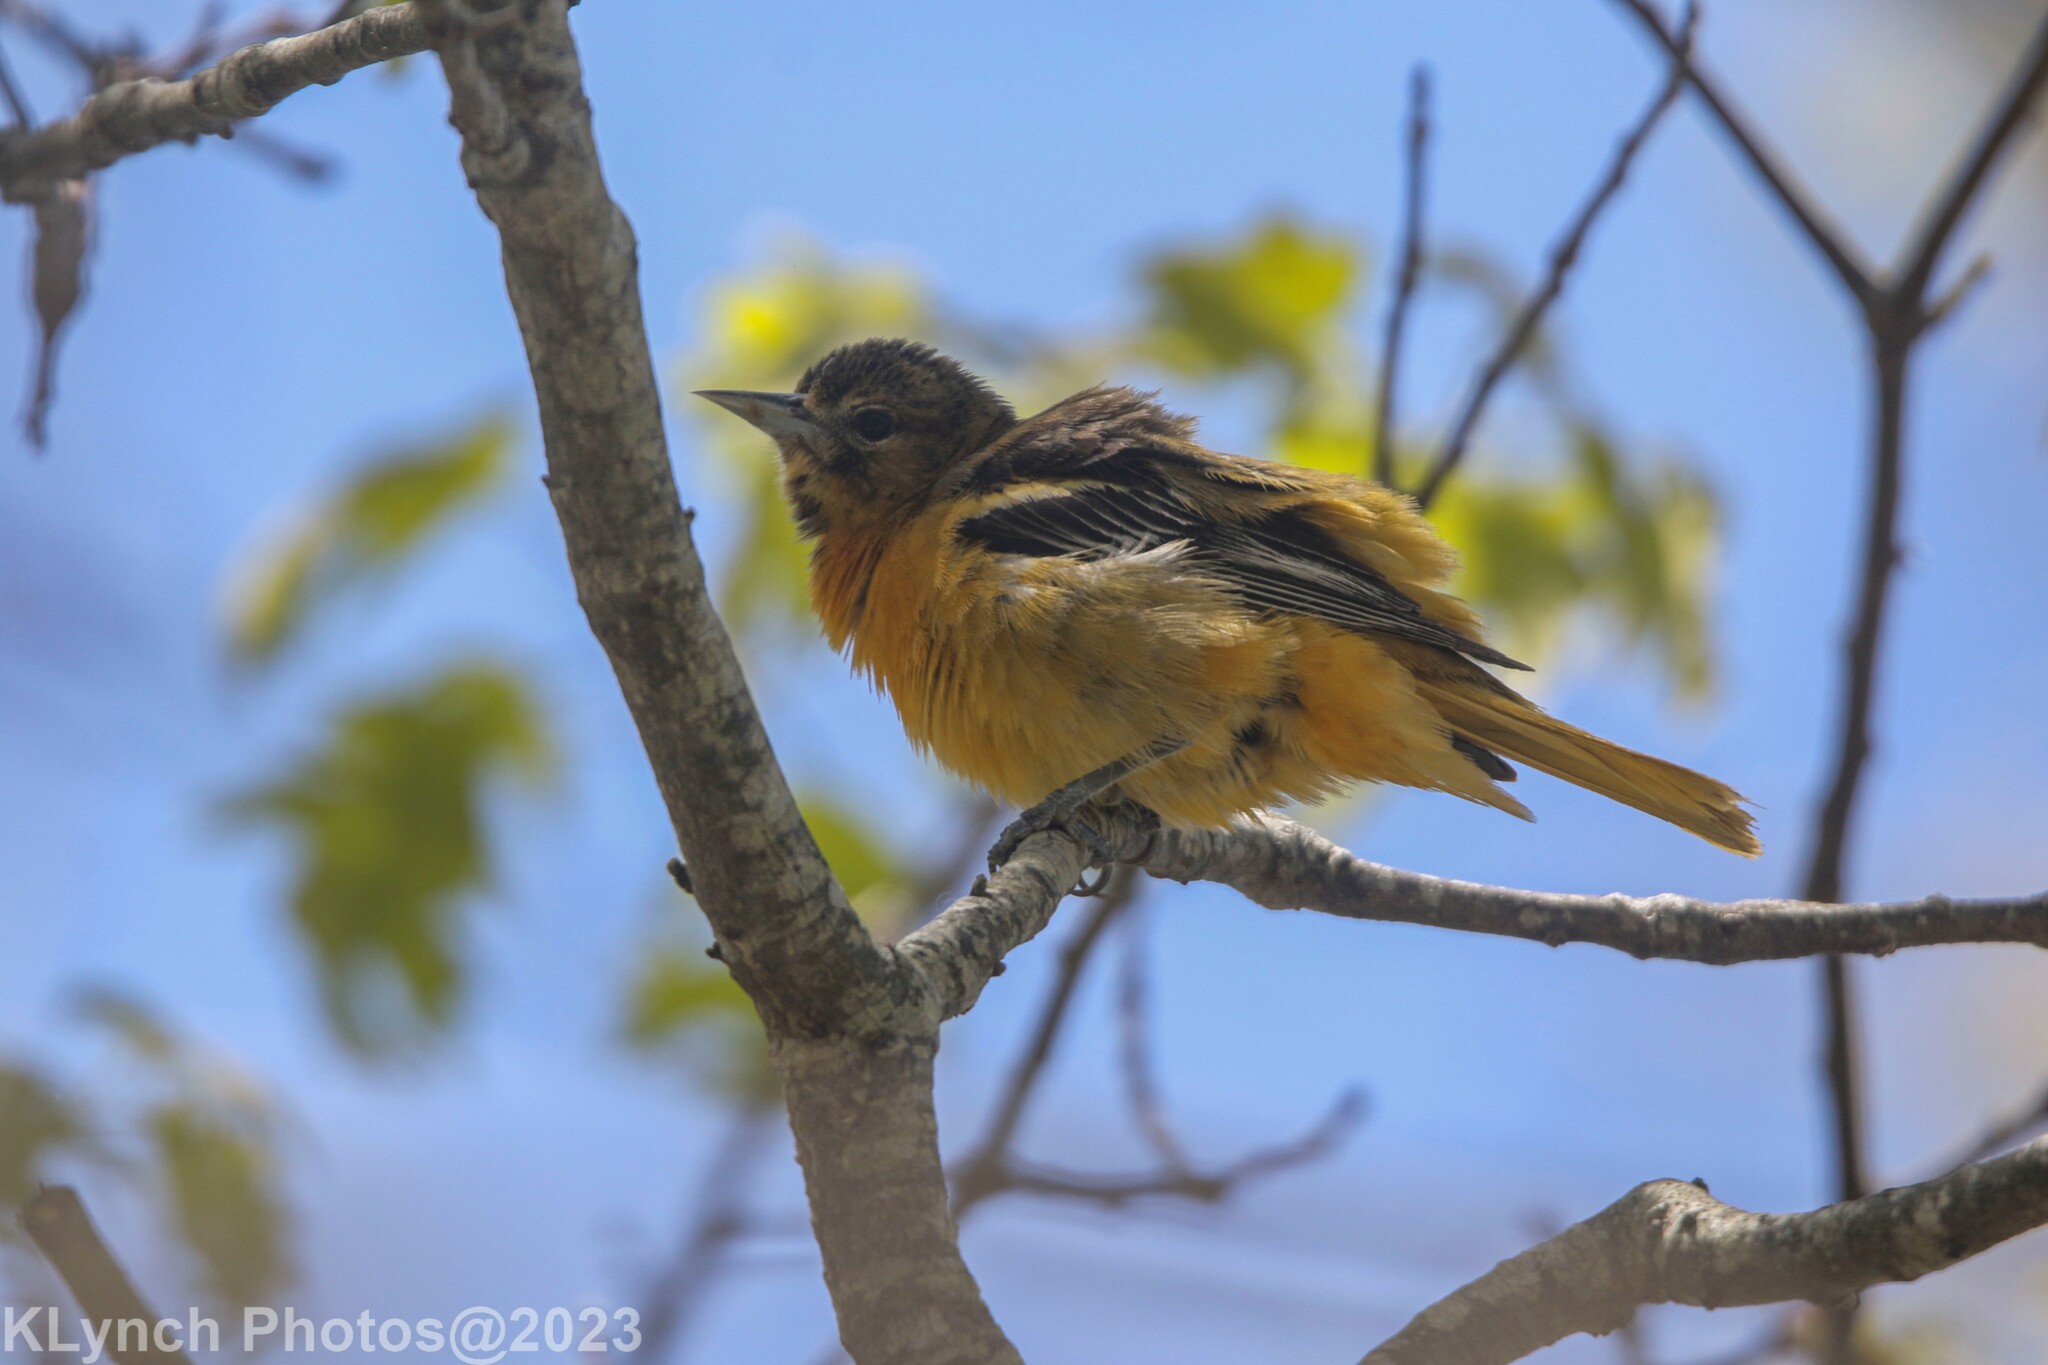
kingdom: Animalia
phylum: Chordata
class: Aves
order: Passeriformes
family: Icteridae
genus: Icterus
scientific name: Icterus galbula
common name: Baltimore oriole
